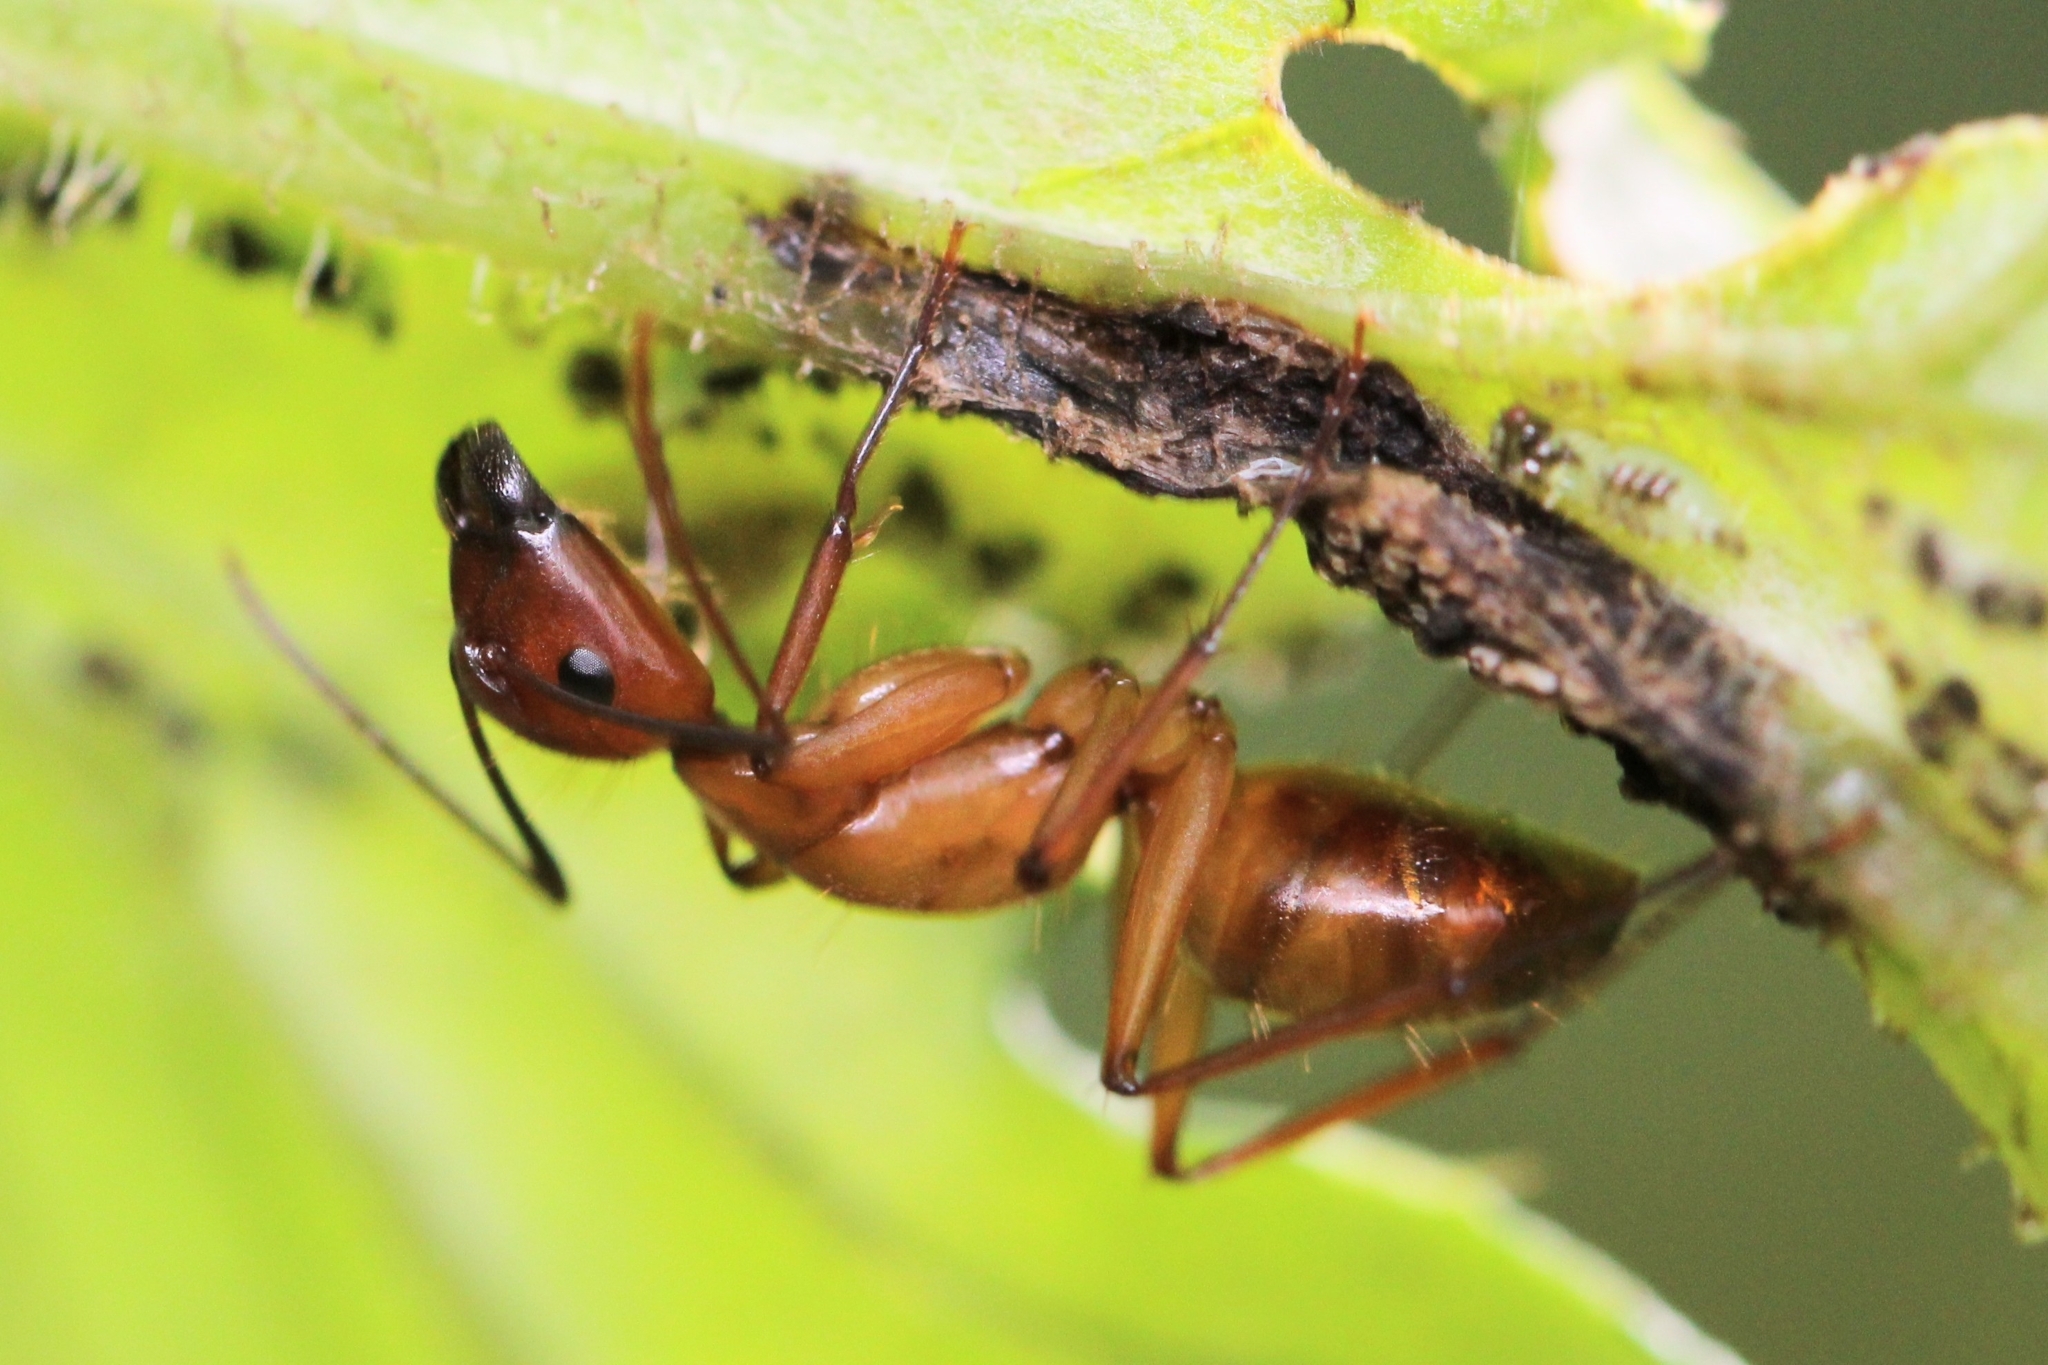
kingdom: Animalia
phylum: Arthropoda
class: Insecta
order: Hymenoptera
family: Formicidae
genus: Camponotus
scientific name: Camponotus castaneus
